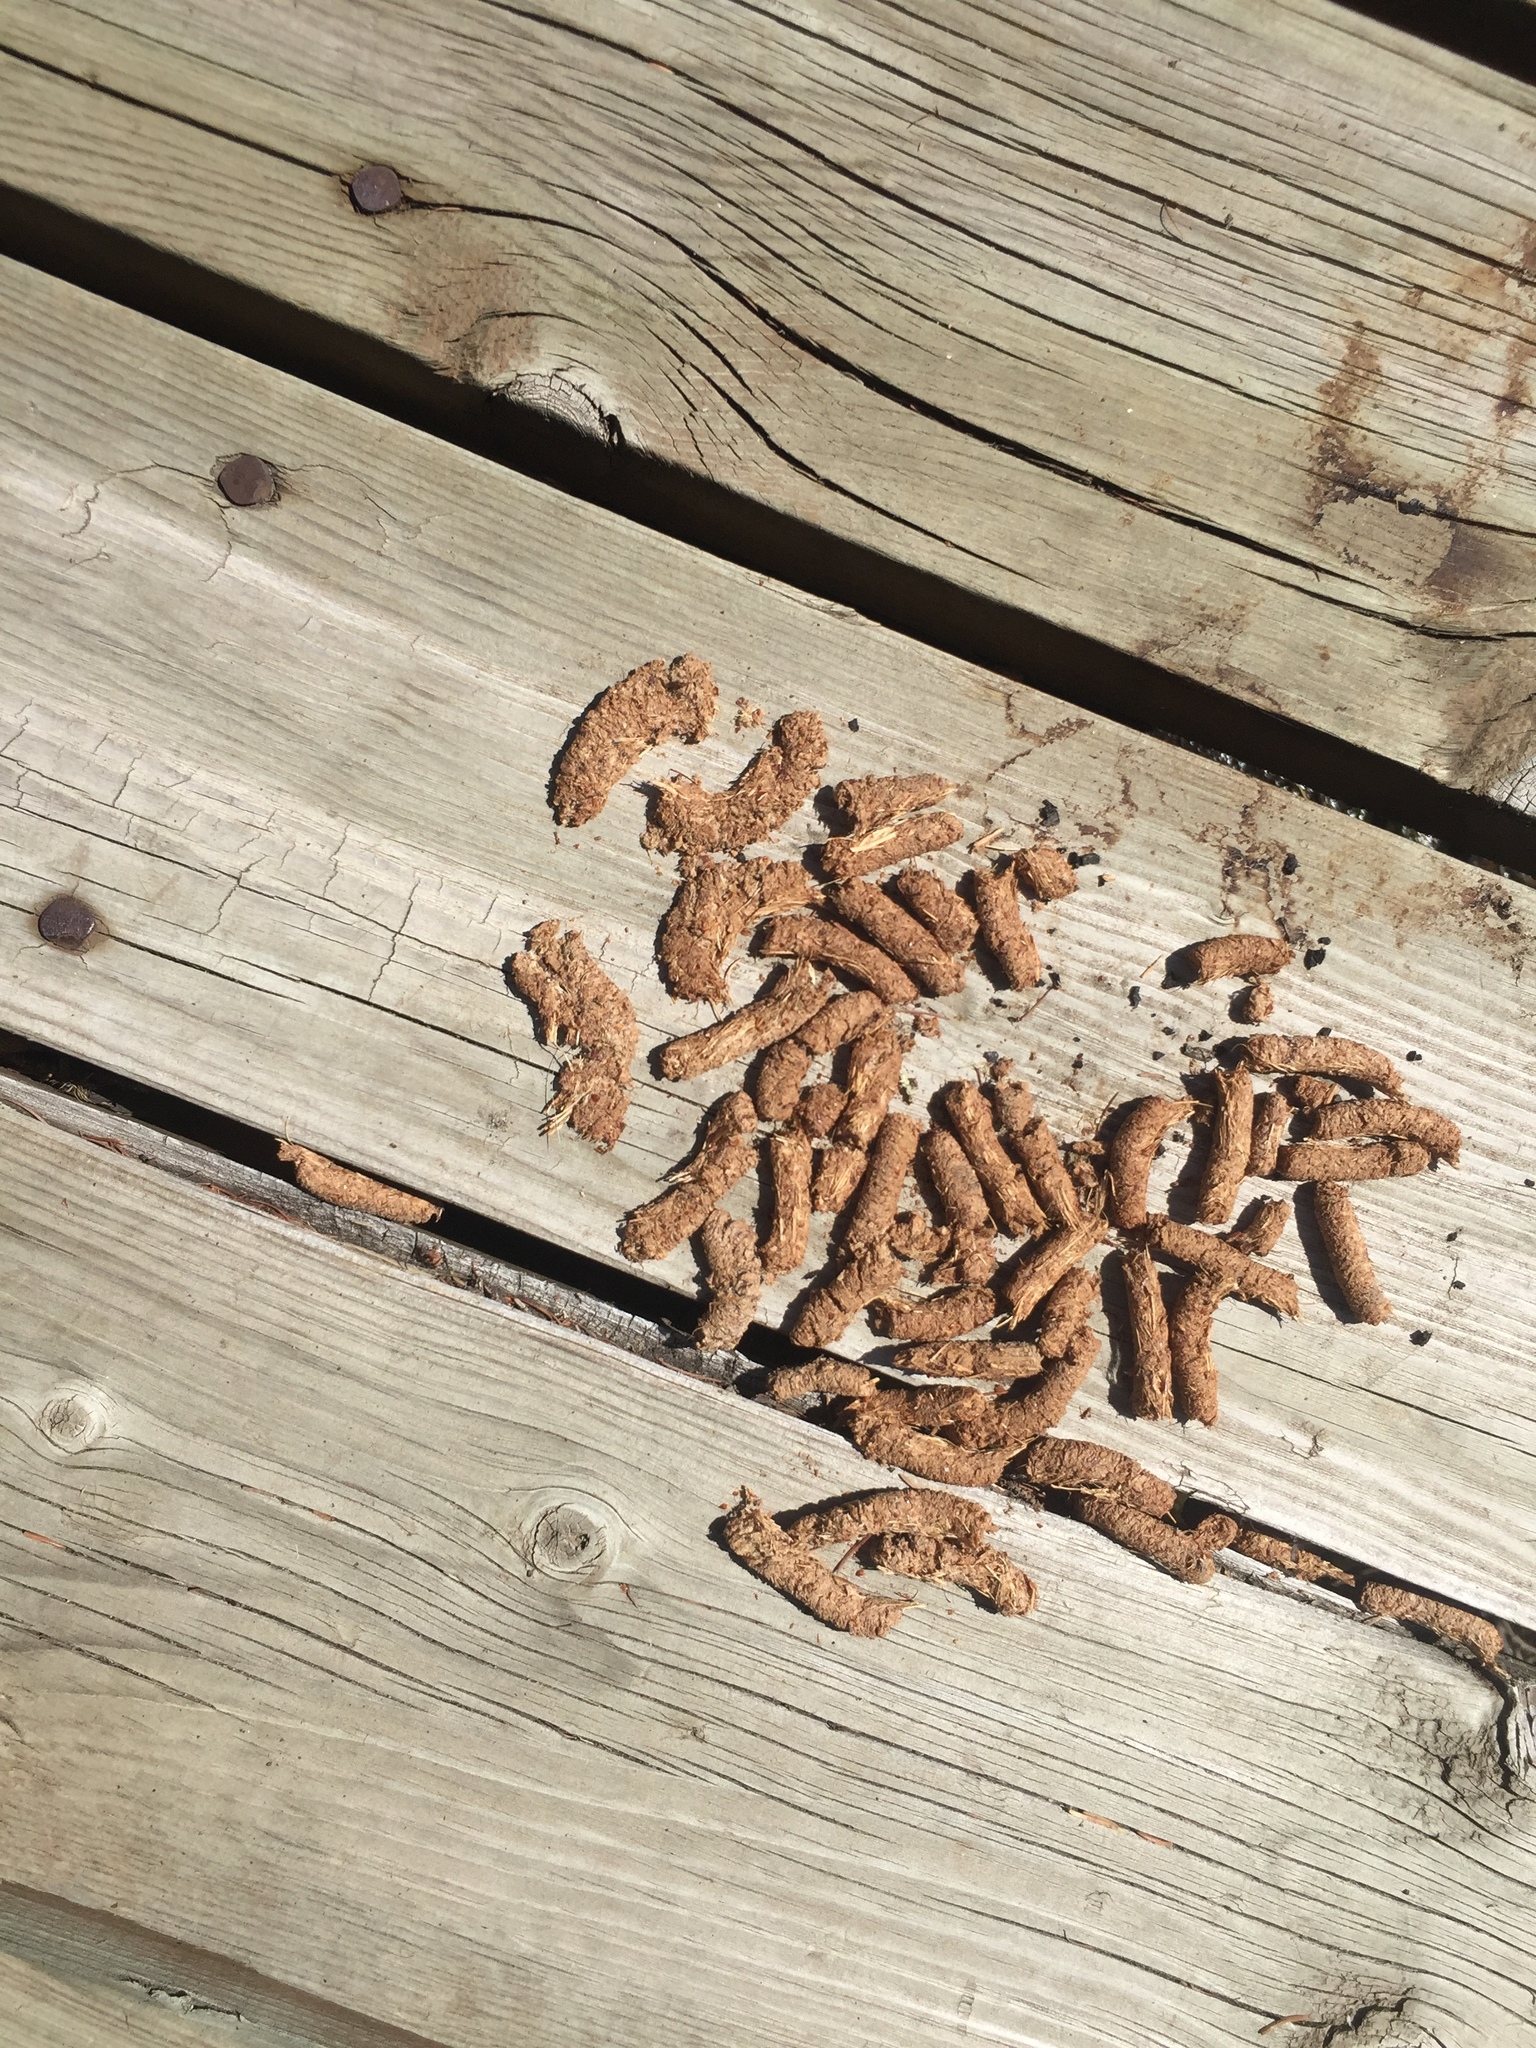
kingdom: Animalia
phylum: Chordata
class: Aves
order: Galliformes
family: Phasianidae
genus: Bonasa
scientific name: Bonasa umbellus
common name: Ruffed grouse
